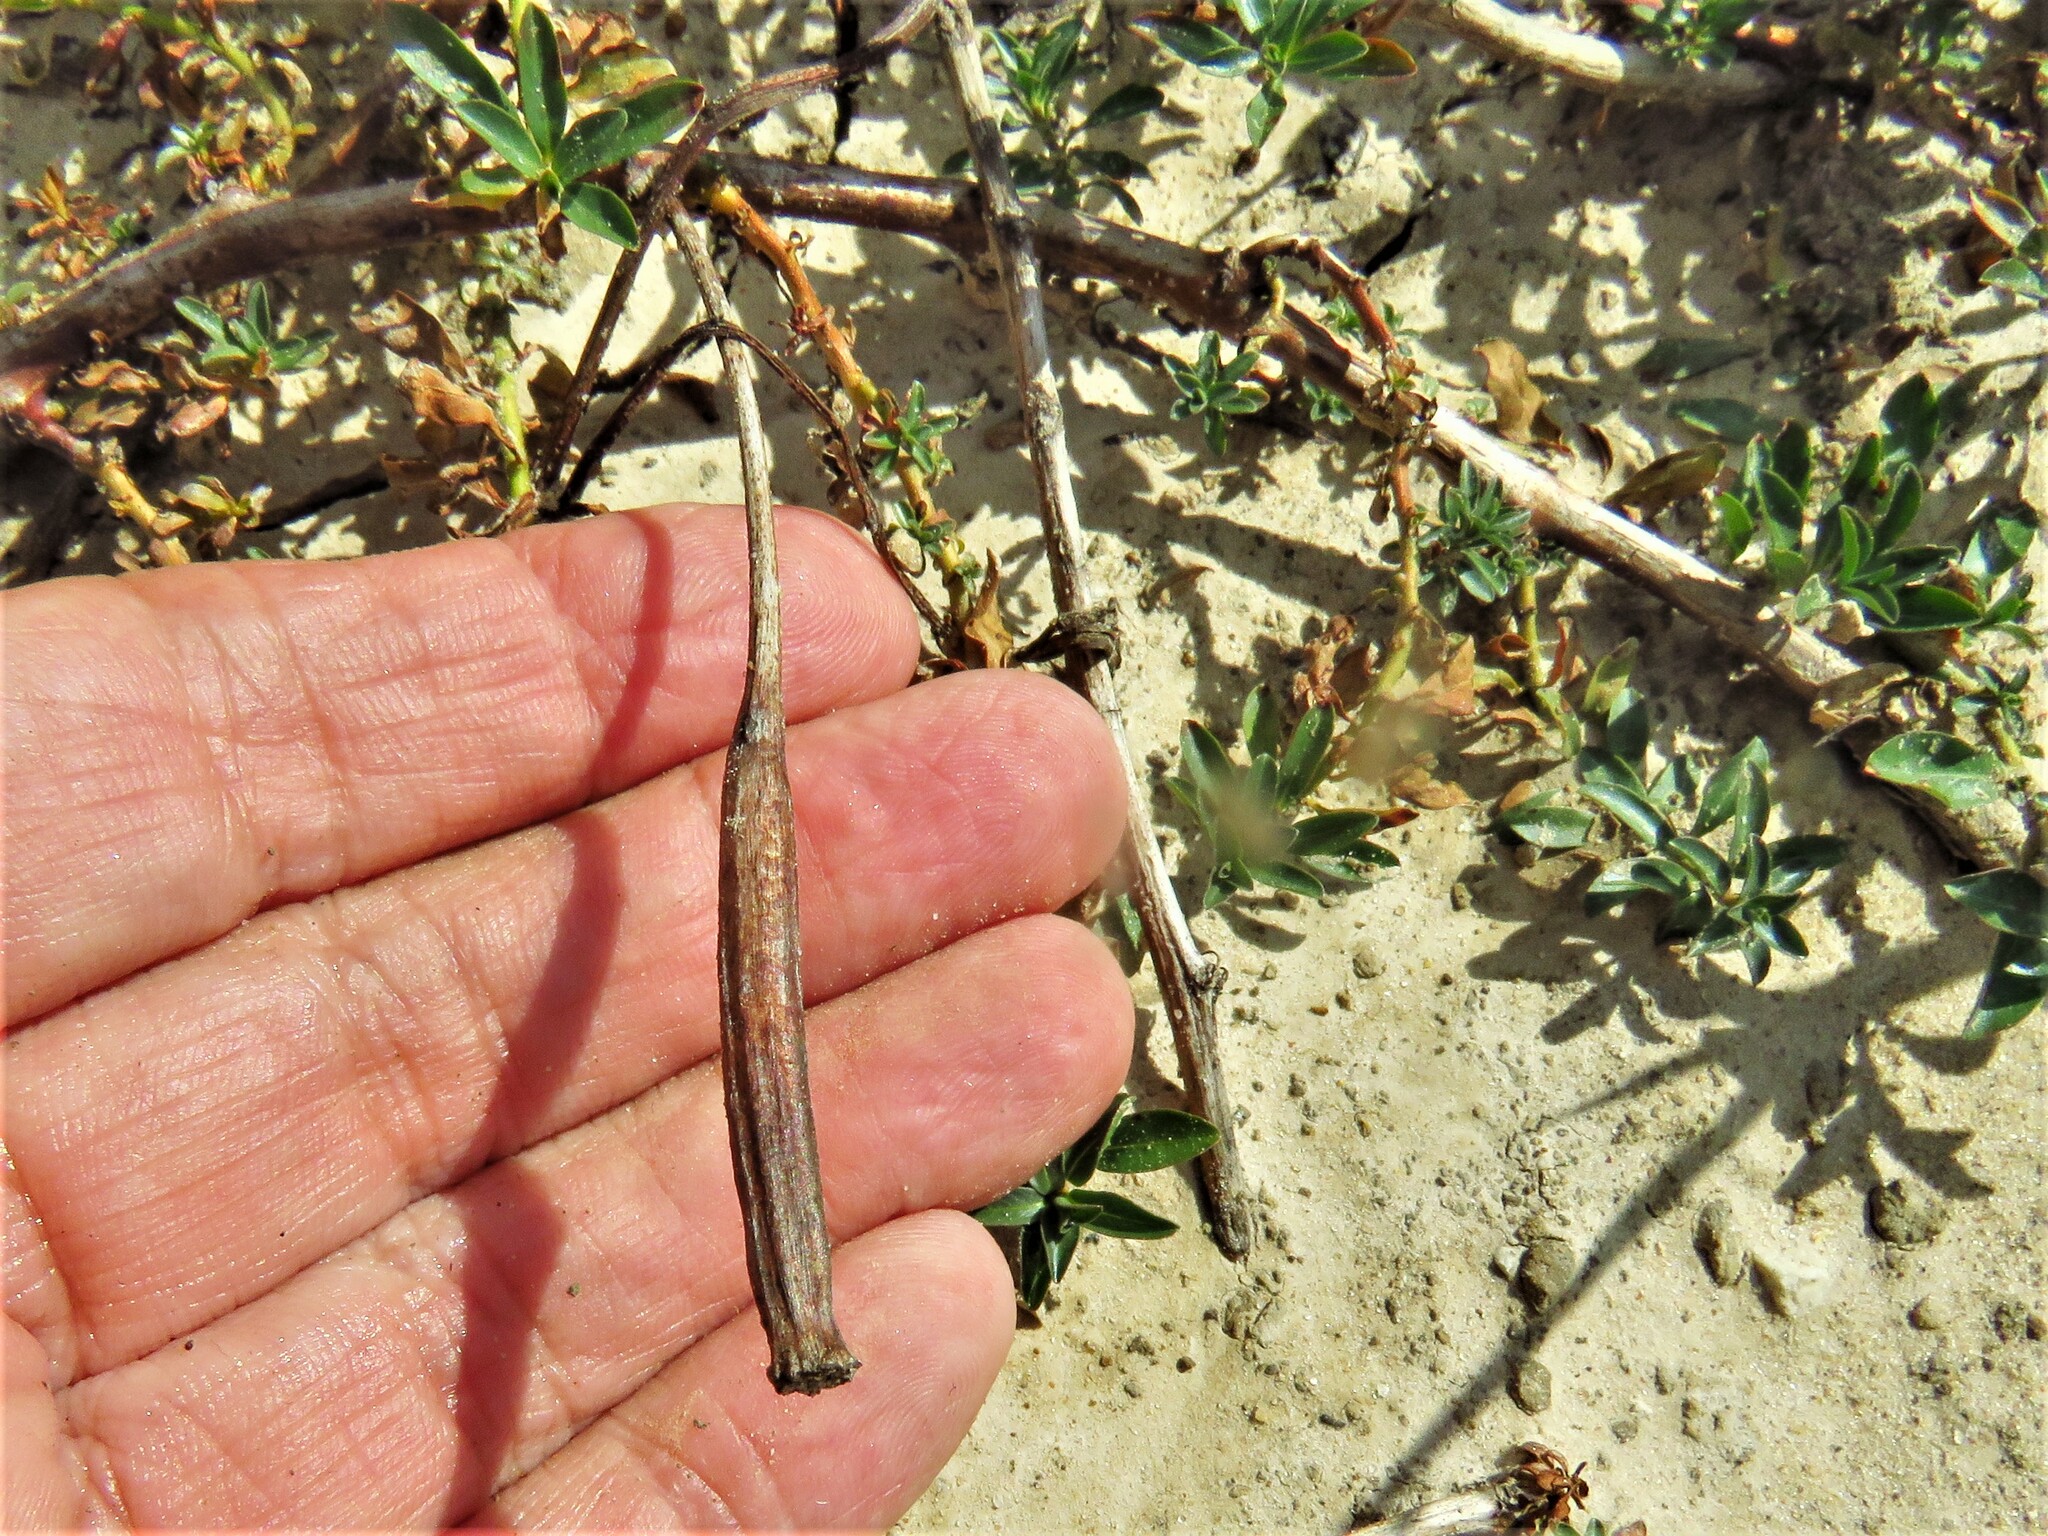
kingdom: Plantae
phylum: Tracheophyta
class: Magnoliopsida
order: Myrtales
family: Onagraceae
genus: Ludwigia
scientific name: Ludwigia peploides
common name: Floating primrose-willow
